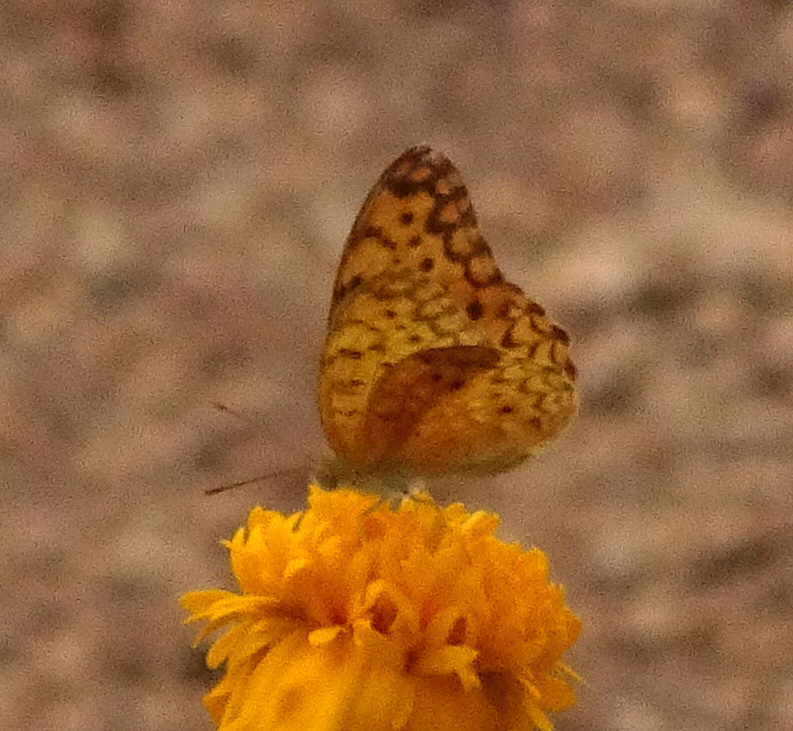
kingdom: Animalia
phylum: Arthropoda
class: Insecta
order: Lepidoptera
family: Nymphalidae
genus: Phalanta
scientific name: Phalanta phalantha
